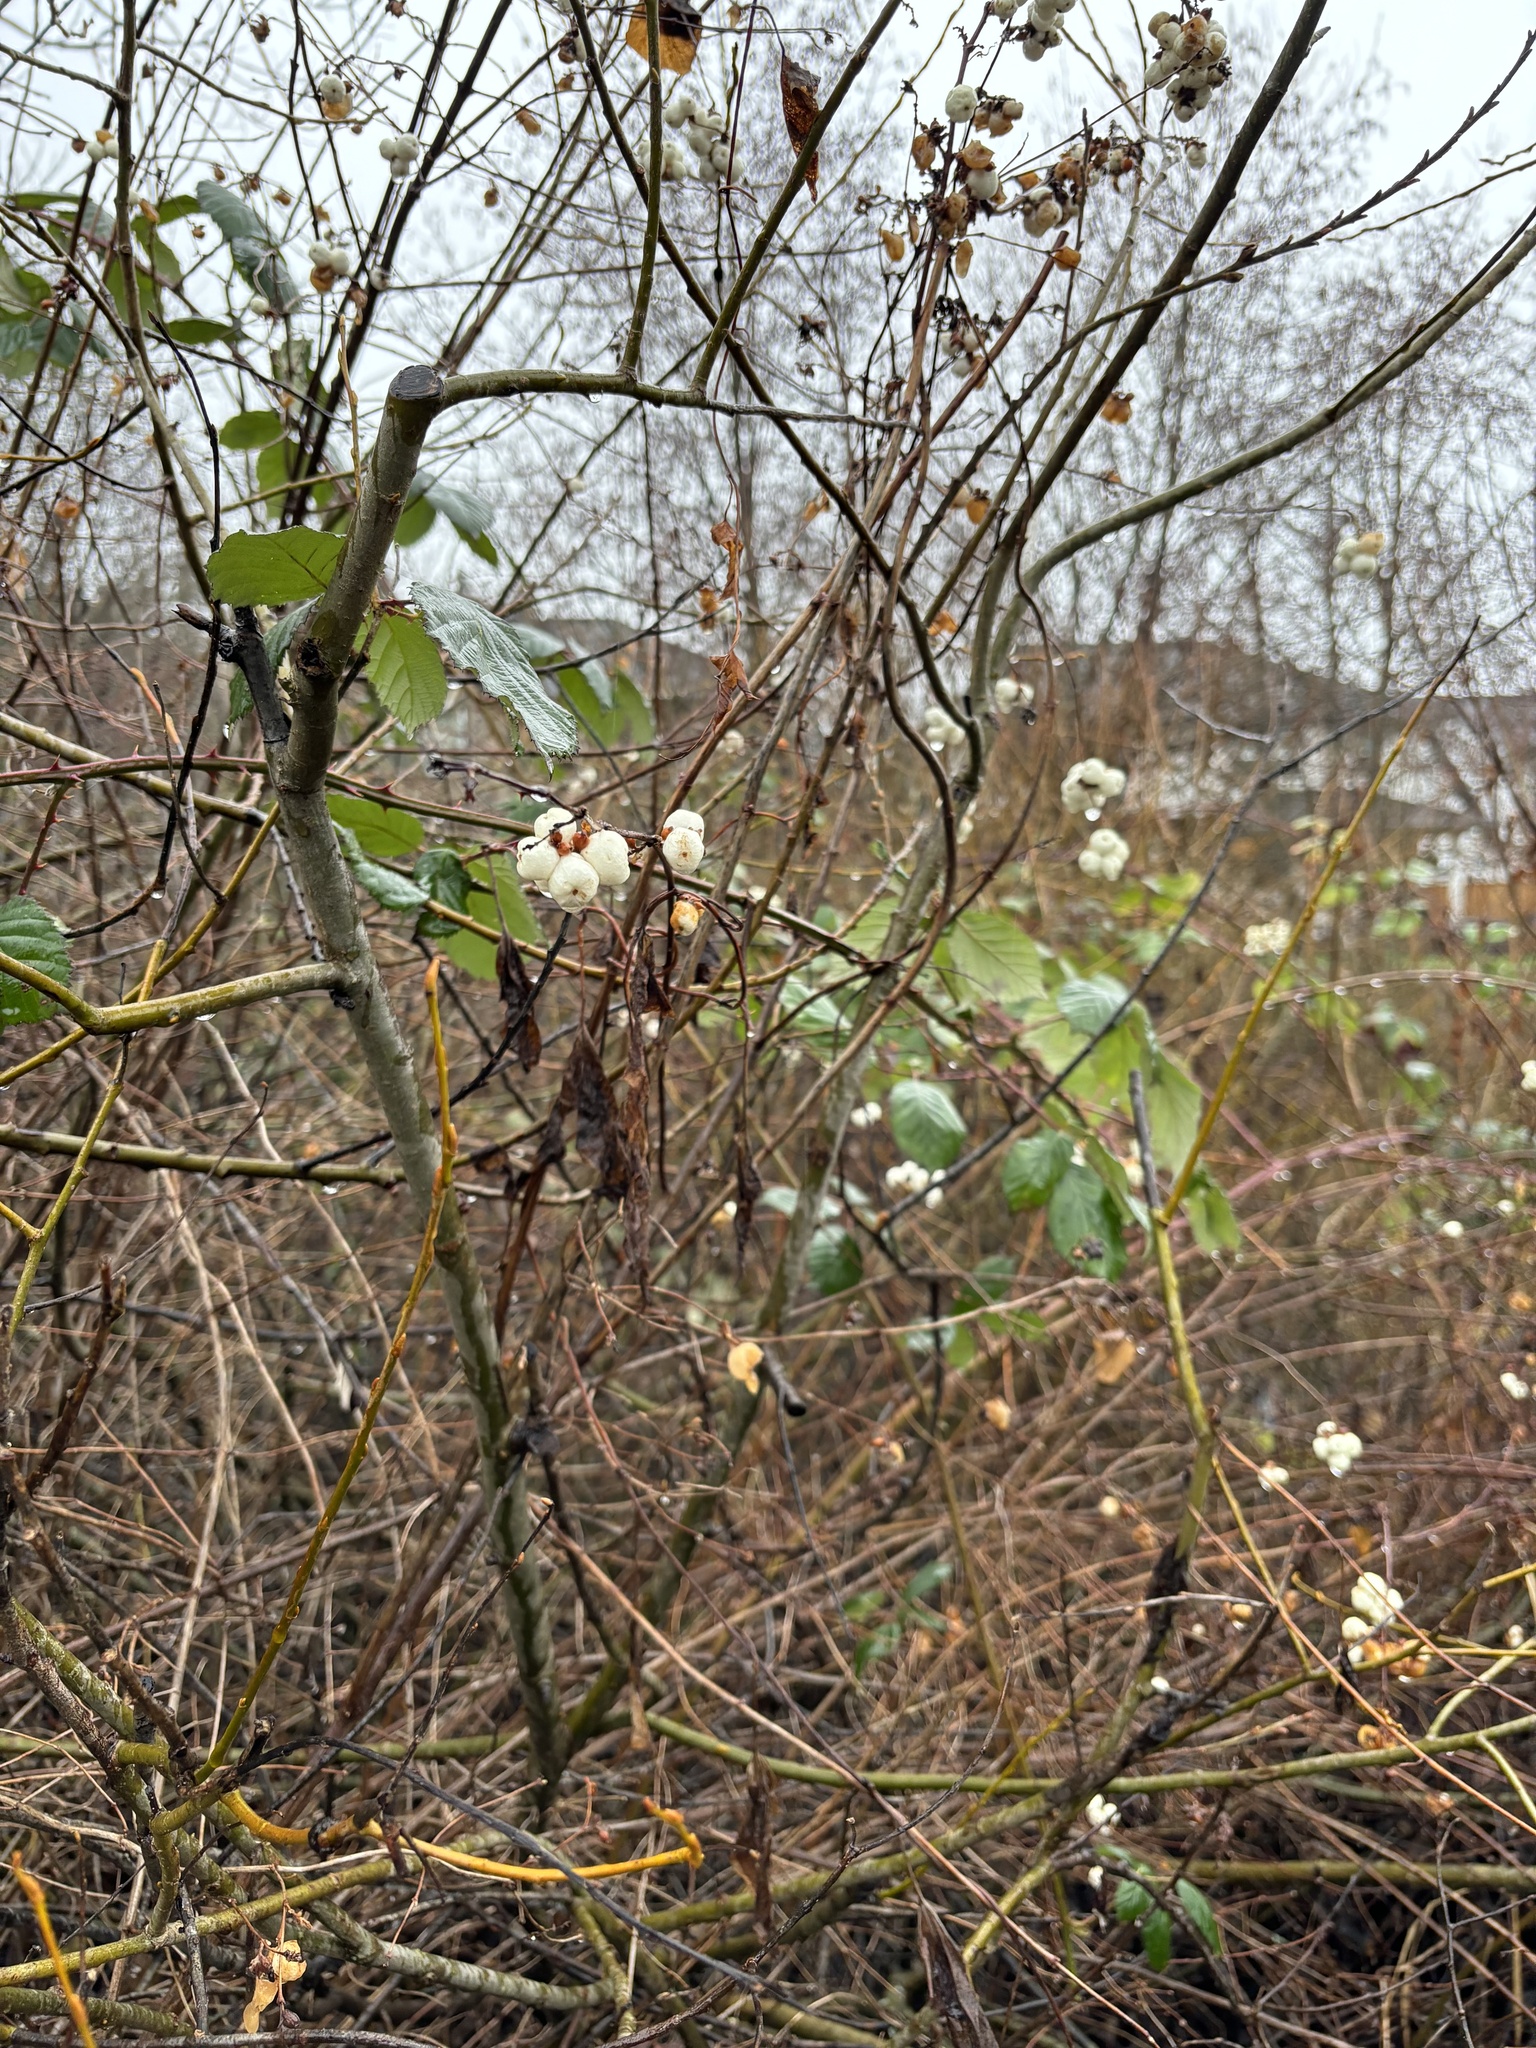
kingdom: Plantae
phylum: Tracheophyta
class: Magnoliopsida
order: Dipsacales
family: Caprifoliaceae
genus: Symphoricarpos
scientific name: Symphoricarpos albus
